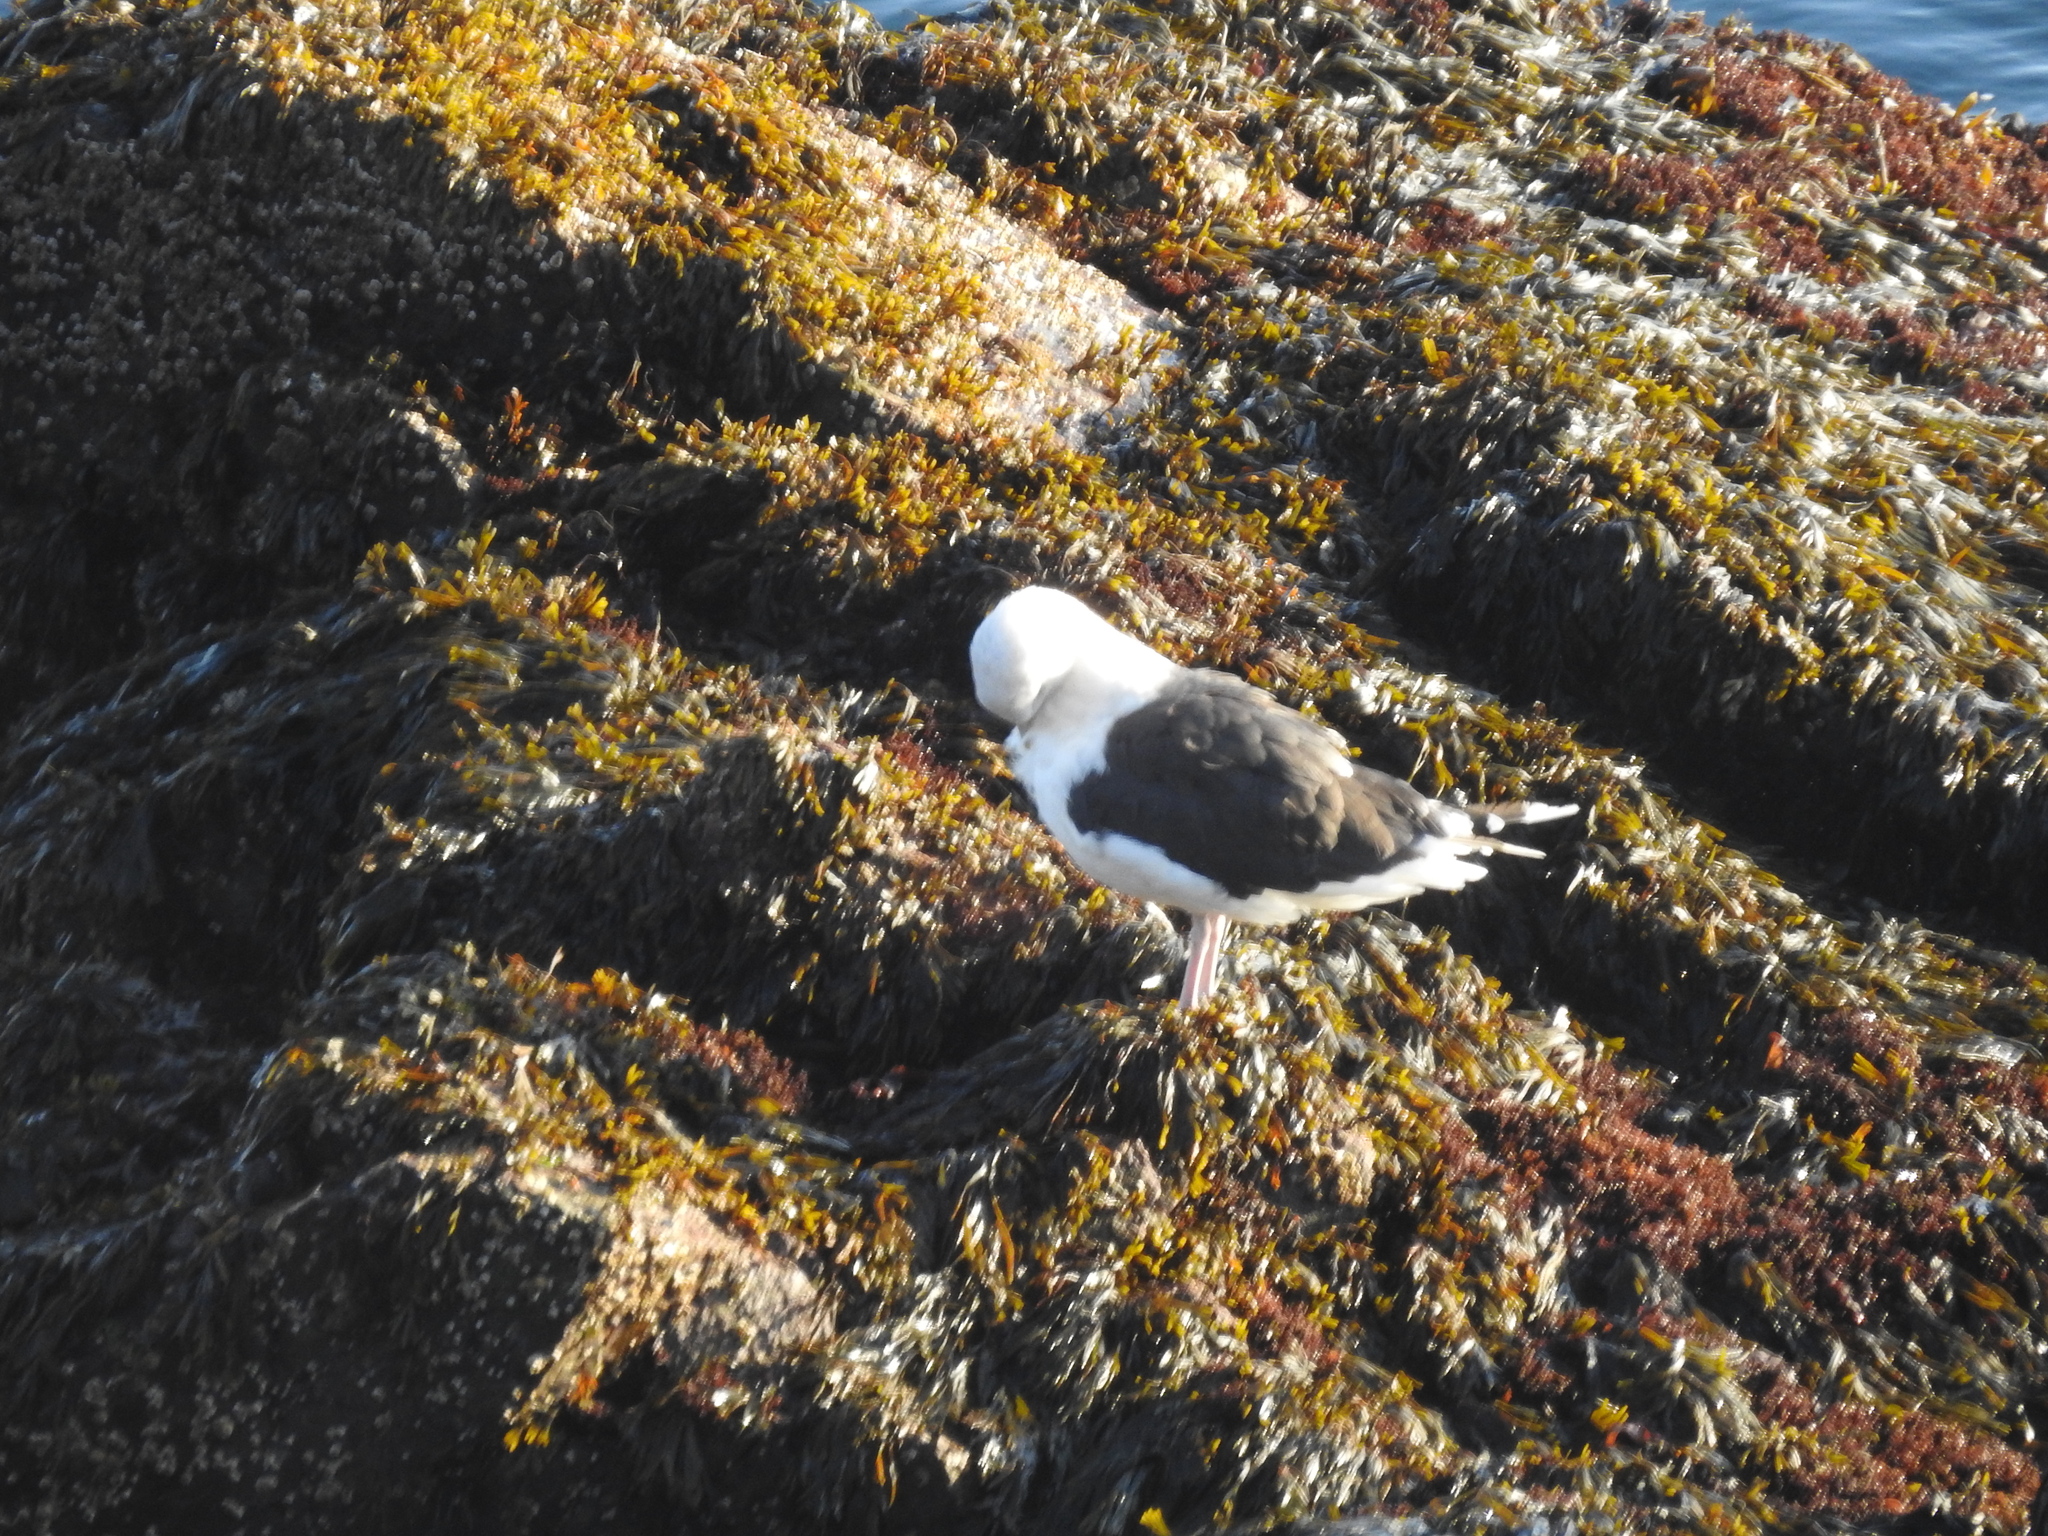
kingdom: Animalia
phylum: Chordata
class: Aves
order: Charadriiformes
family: Laridae
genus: Larus
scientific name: Larus marinus
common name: Great black-backed gull
